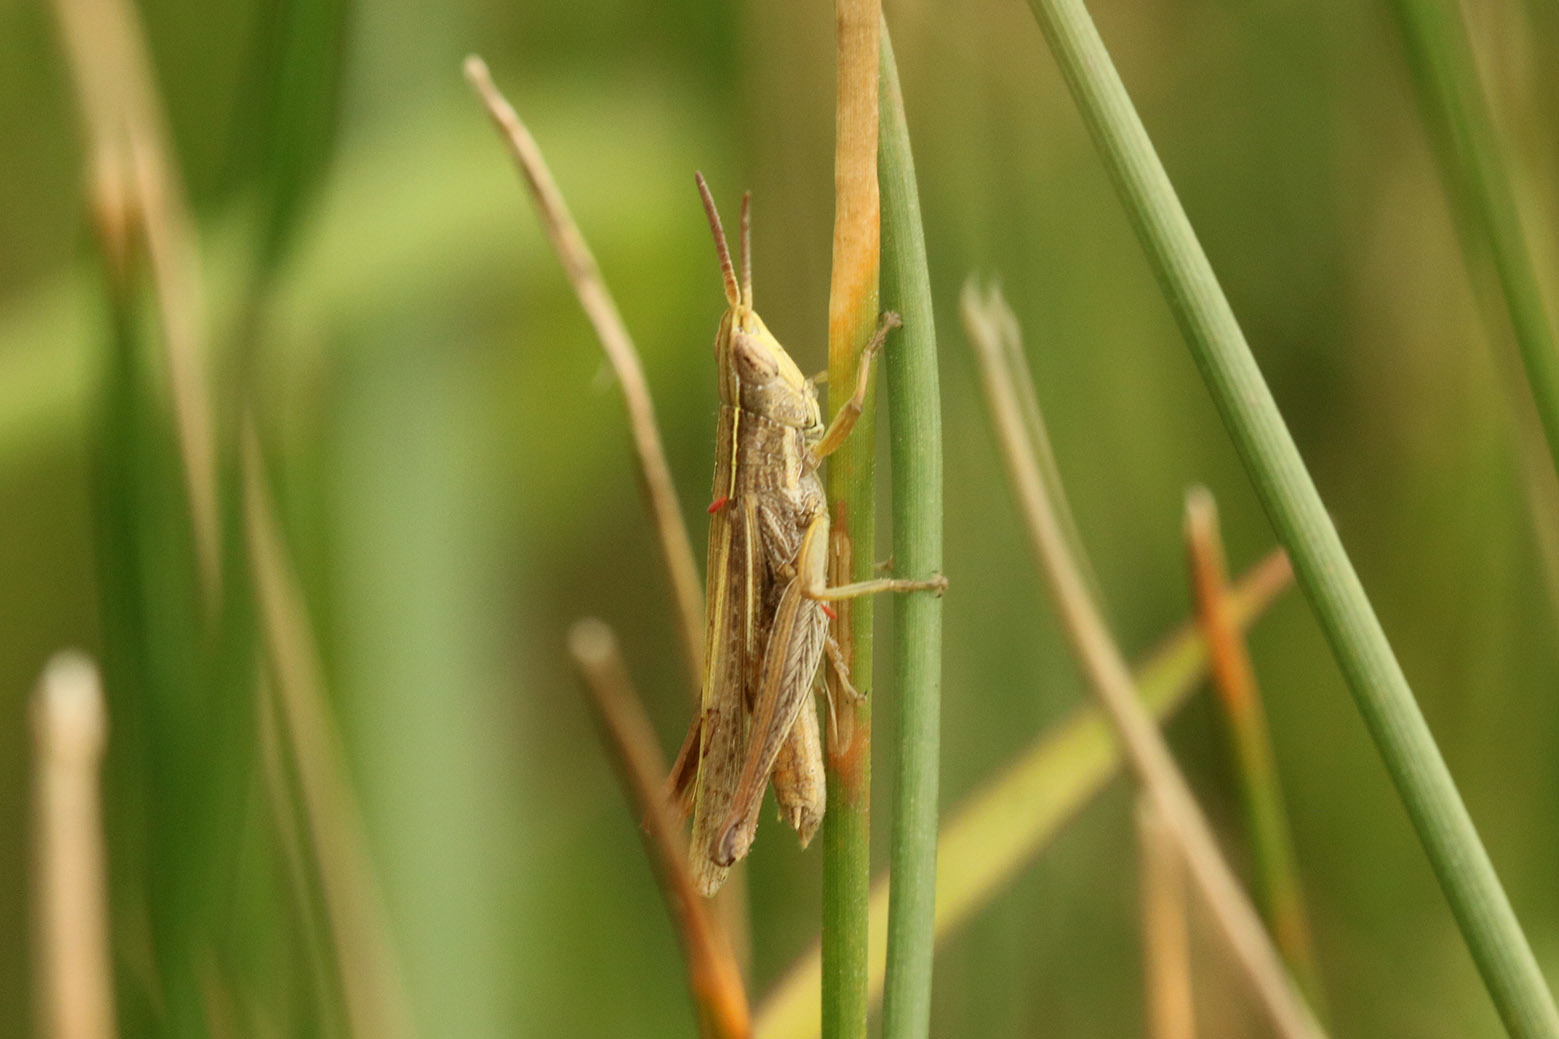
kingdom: Animalia
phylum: Arthropoda
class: Insecta
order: Orthoptera
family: Acrididae
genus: Laplatacris
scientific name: Laplatacris dispar
